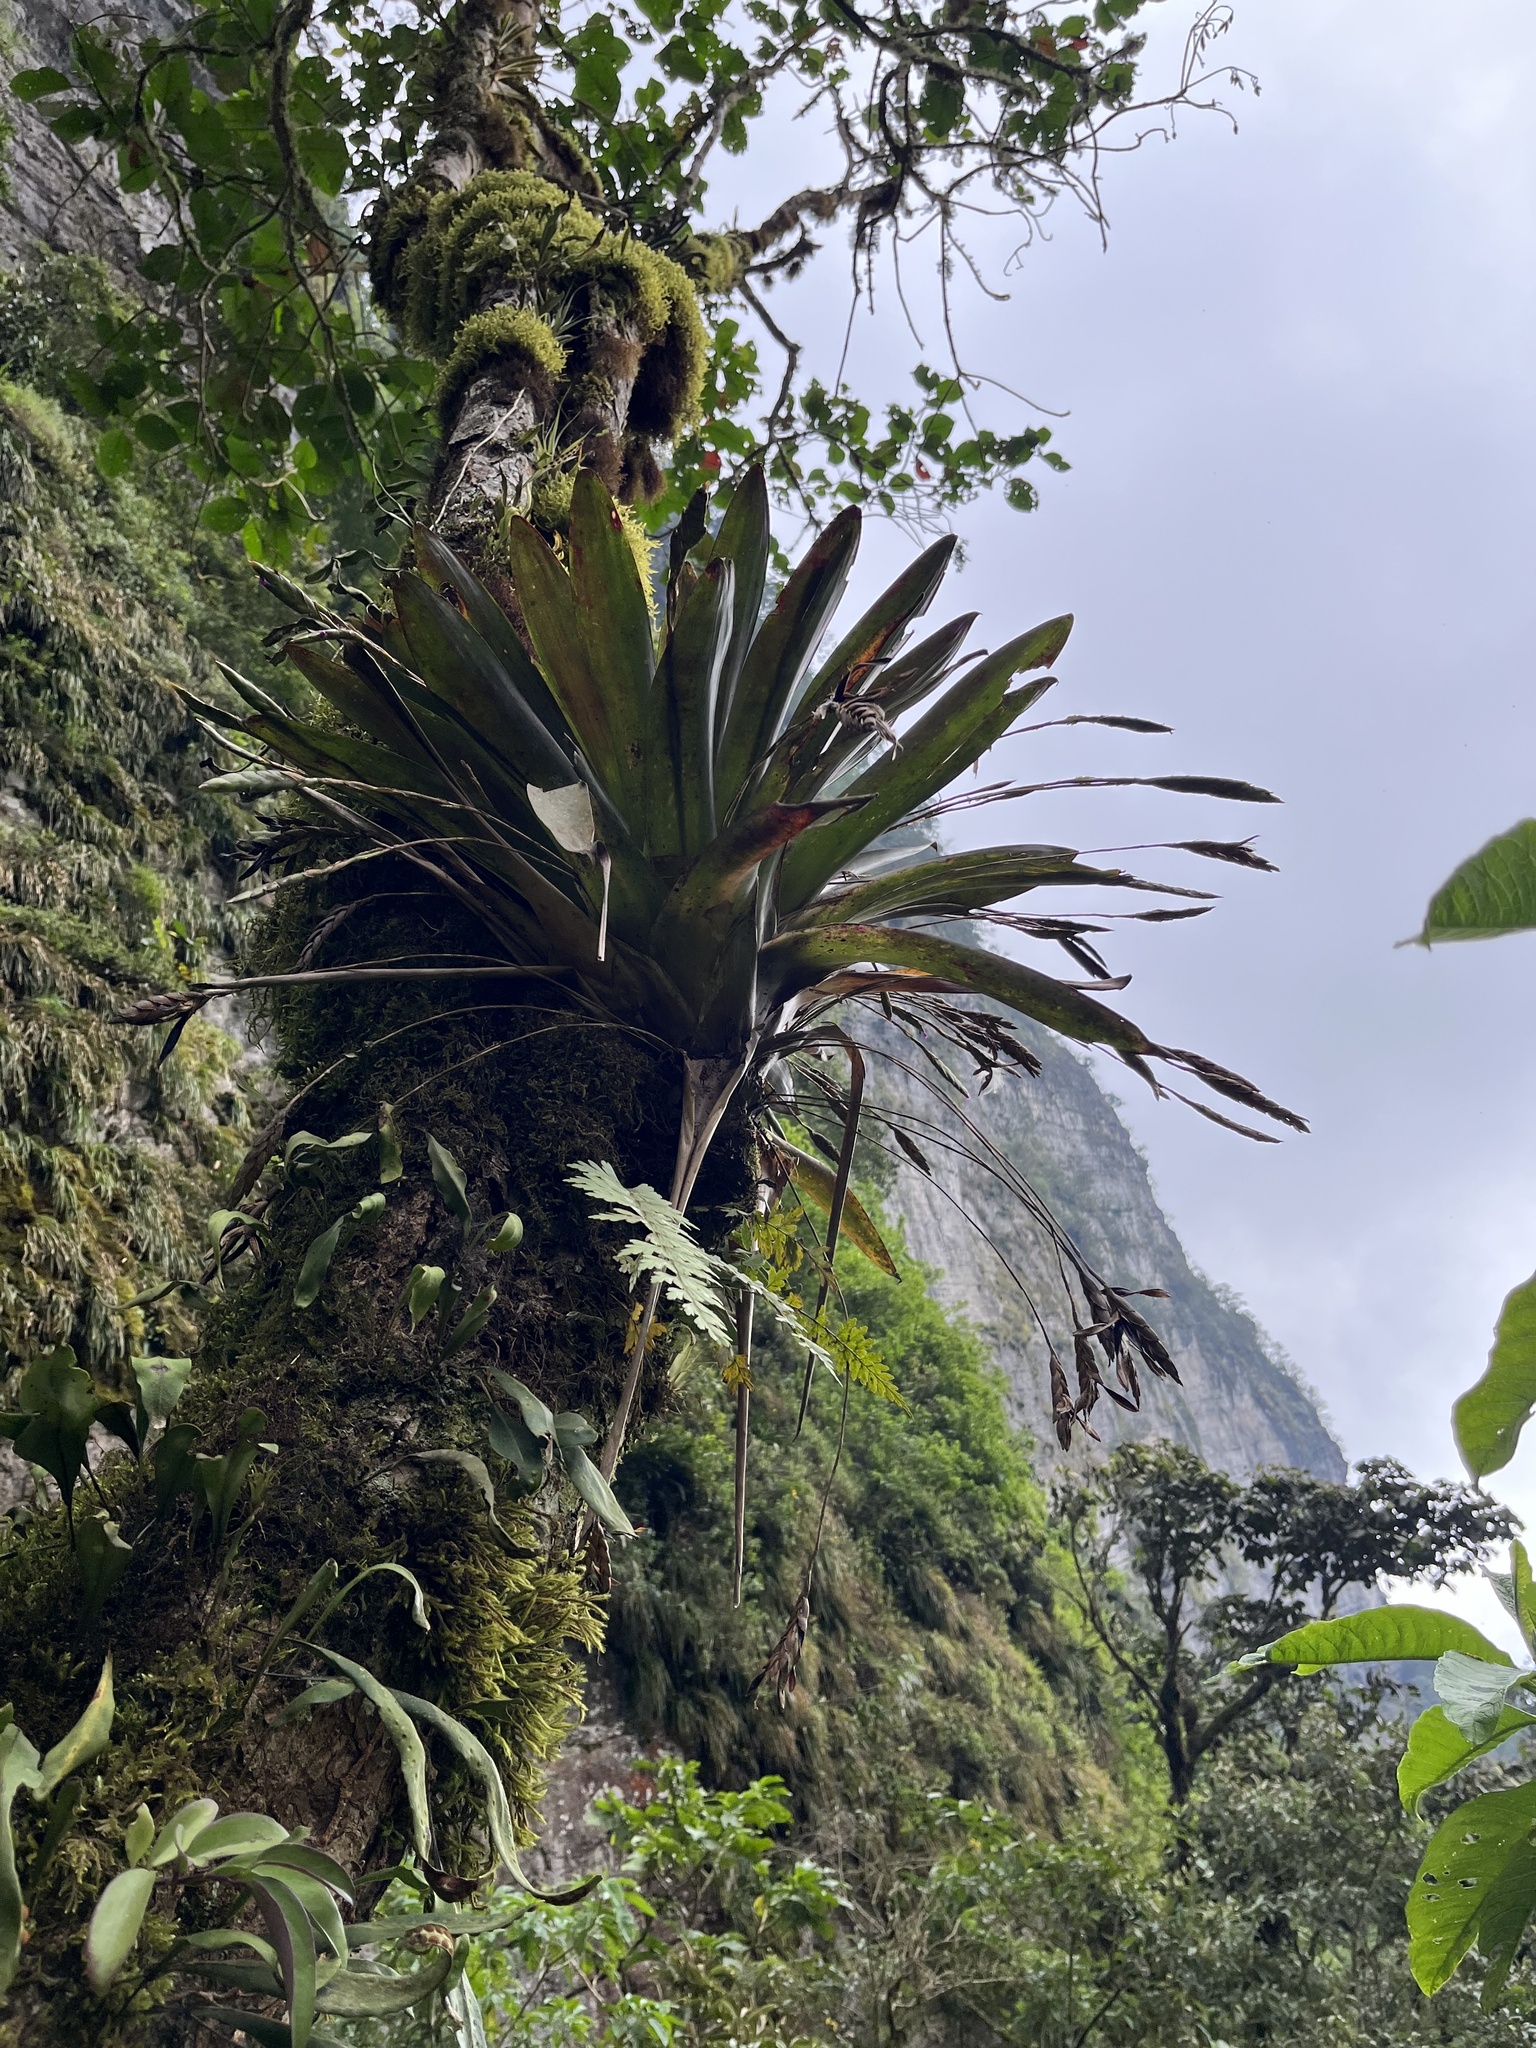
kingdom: Plantae
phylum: Tracheophyta
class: Liliopsida
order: Poales
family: Bromeliaceae
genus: Tillandsia
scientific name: Tillandsia complanata
